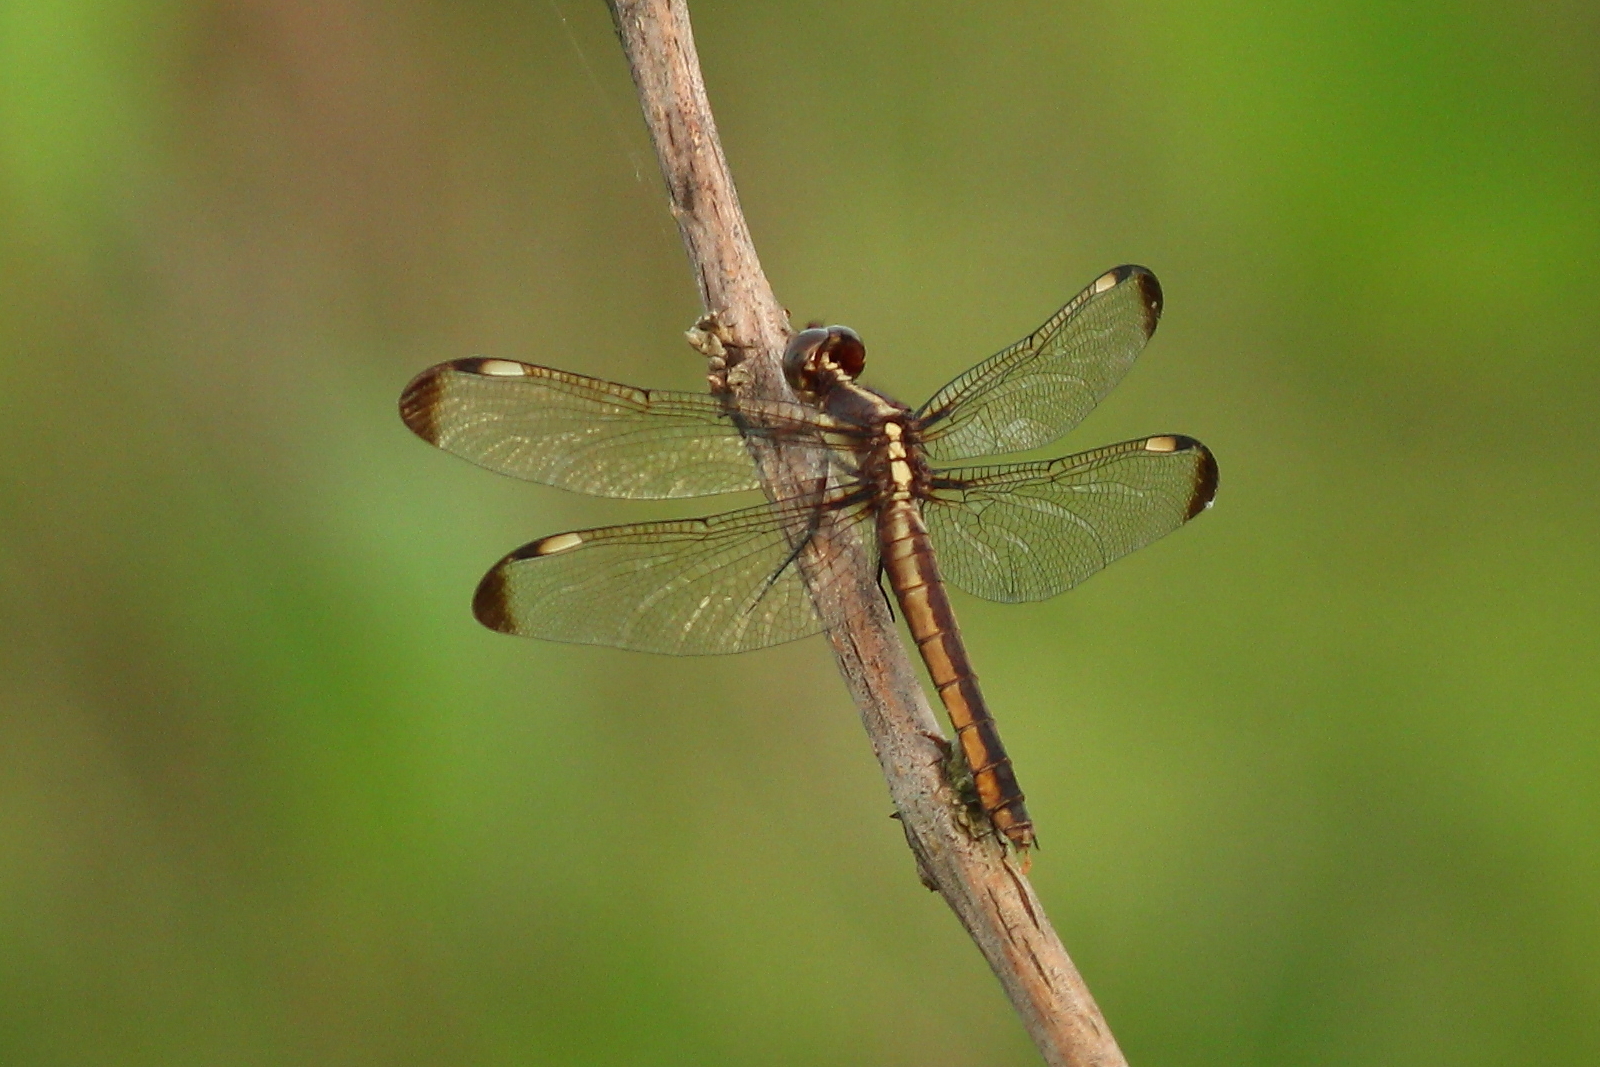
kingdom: Animalia
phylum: Arthropoda
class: Insecta
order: Odonata
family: Libellulidae
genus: Libellula
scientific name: Libellula cyanea
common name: Spangled skimmer
